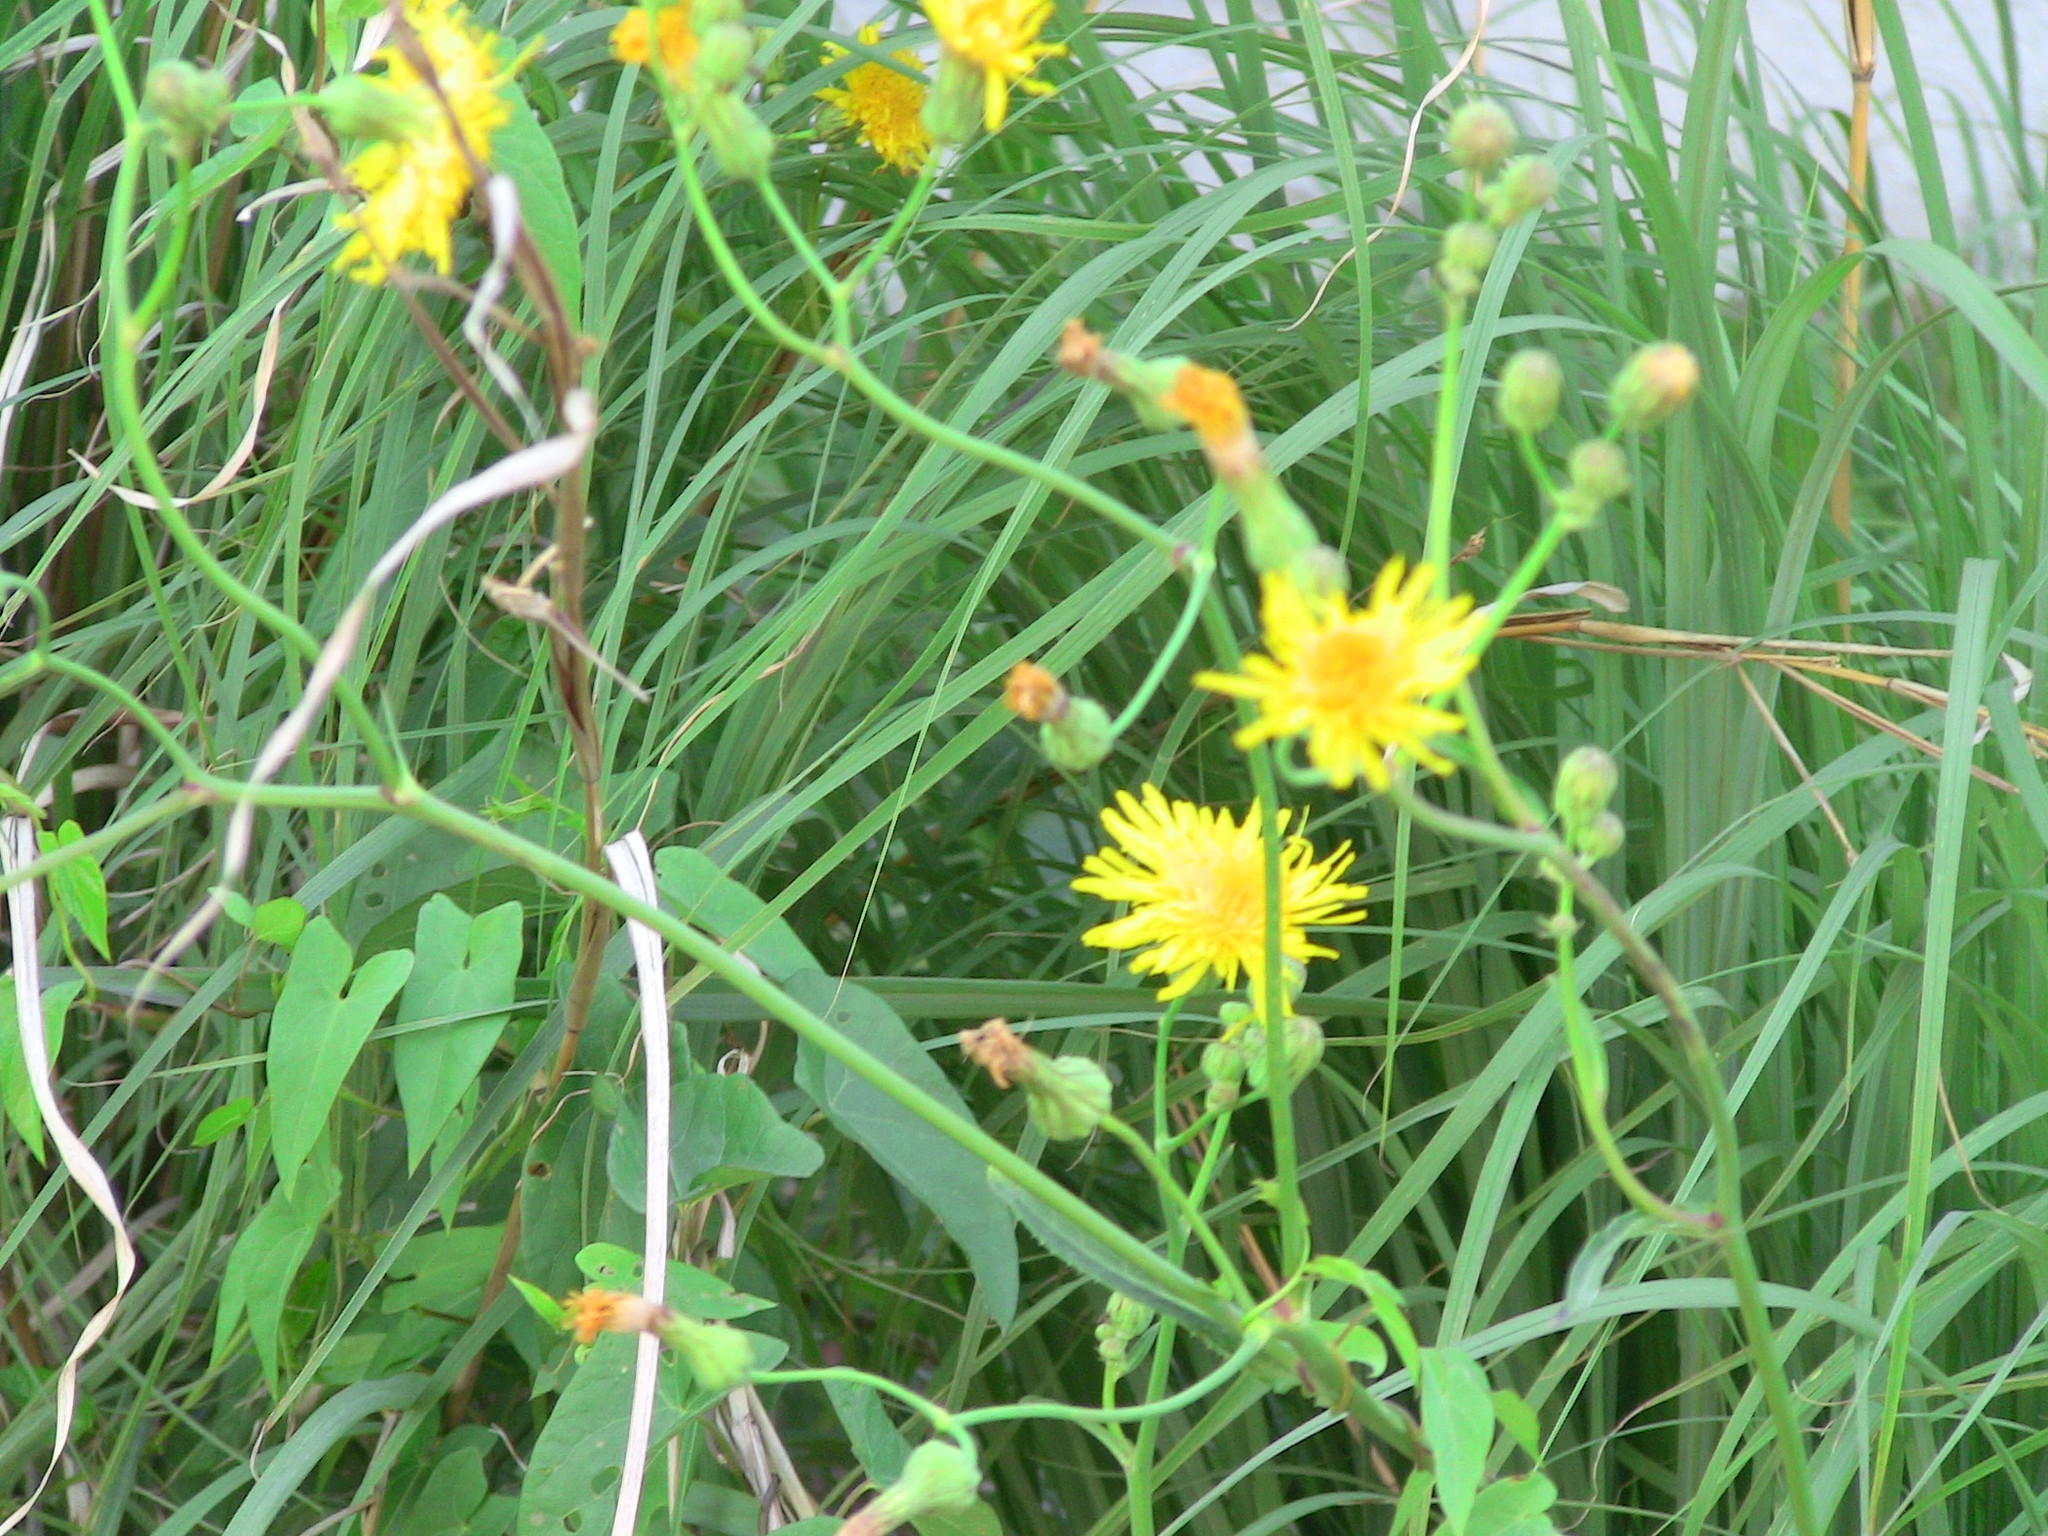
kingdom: Plantae
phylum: Tracheophyta
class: Magnoliopsida
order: Asterales
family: Asteraceae
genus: Sonchus
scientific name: Sonchus arvensis
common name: Perennial sow-thistle
